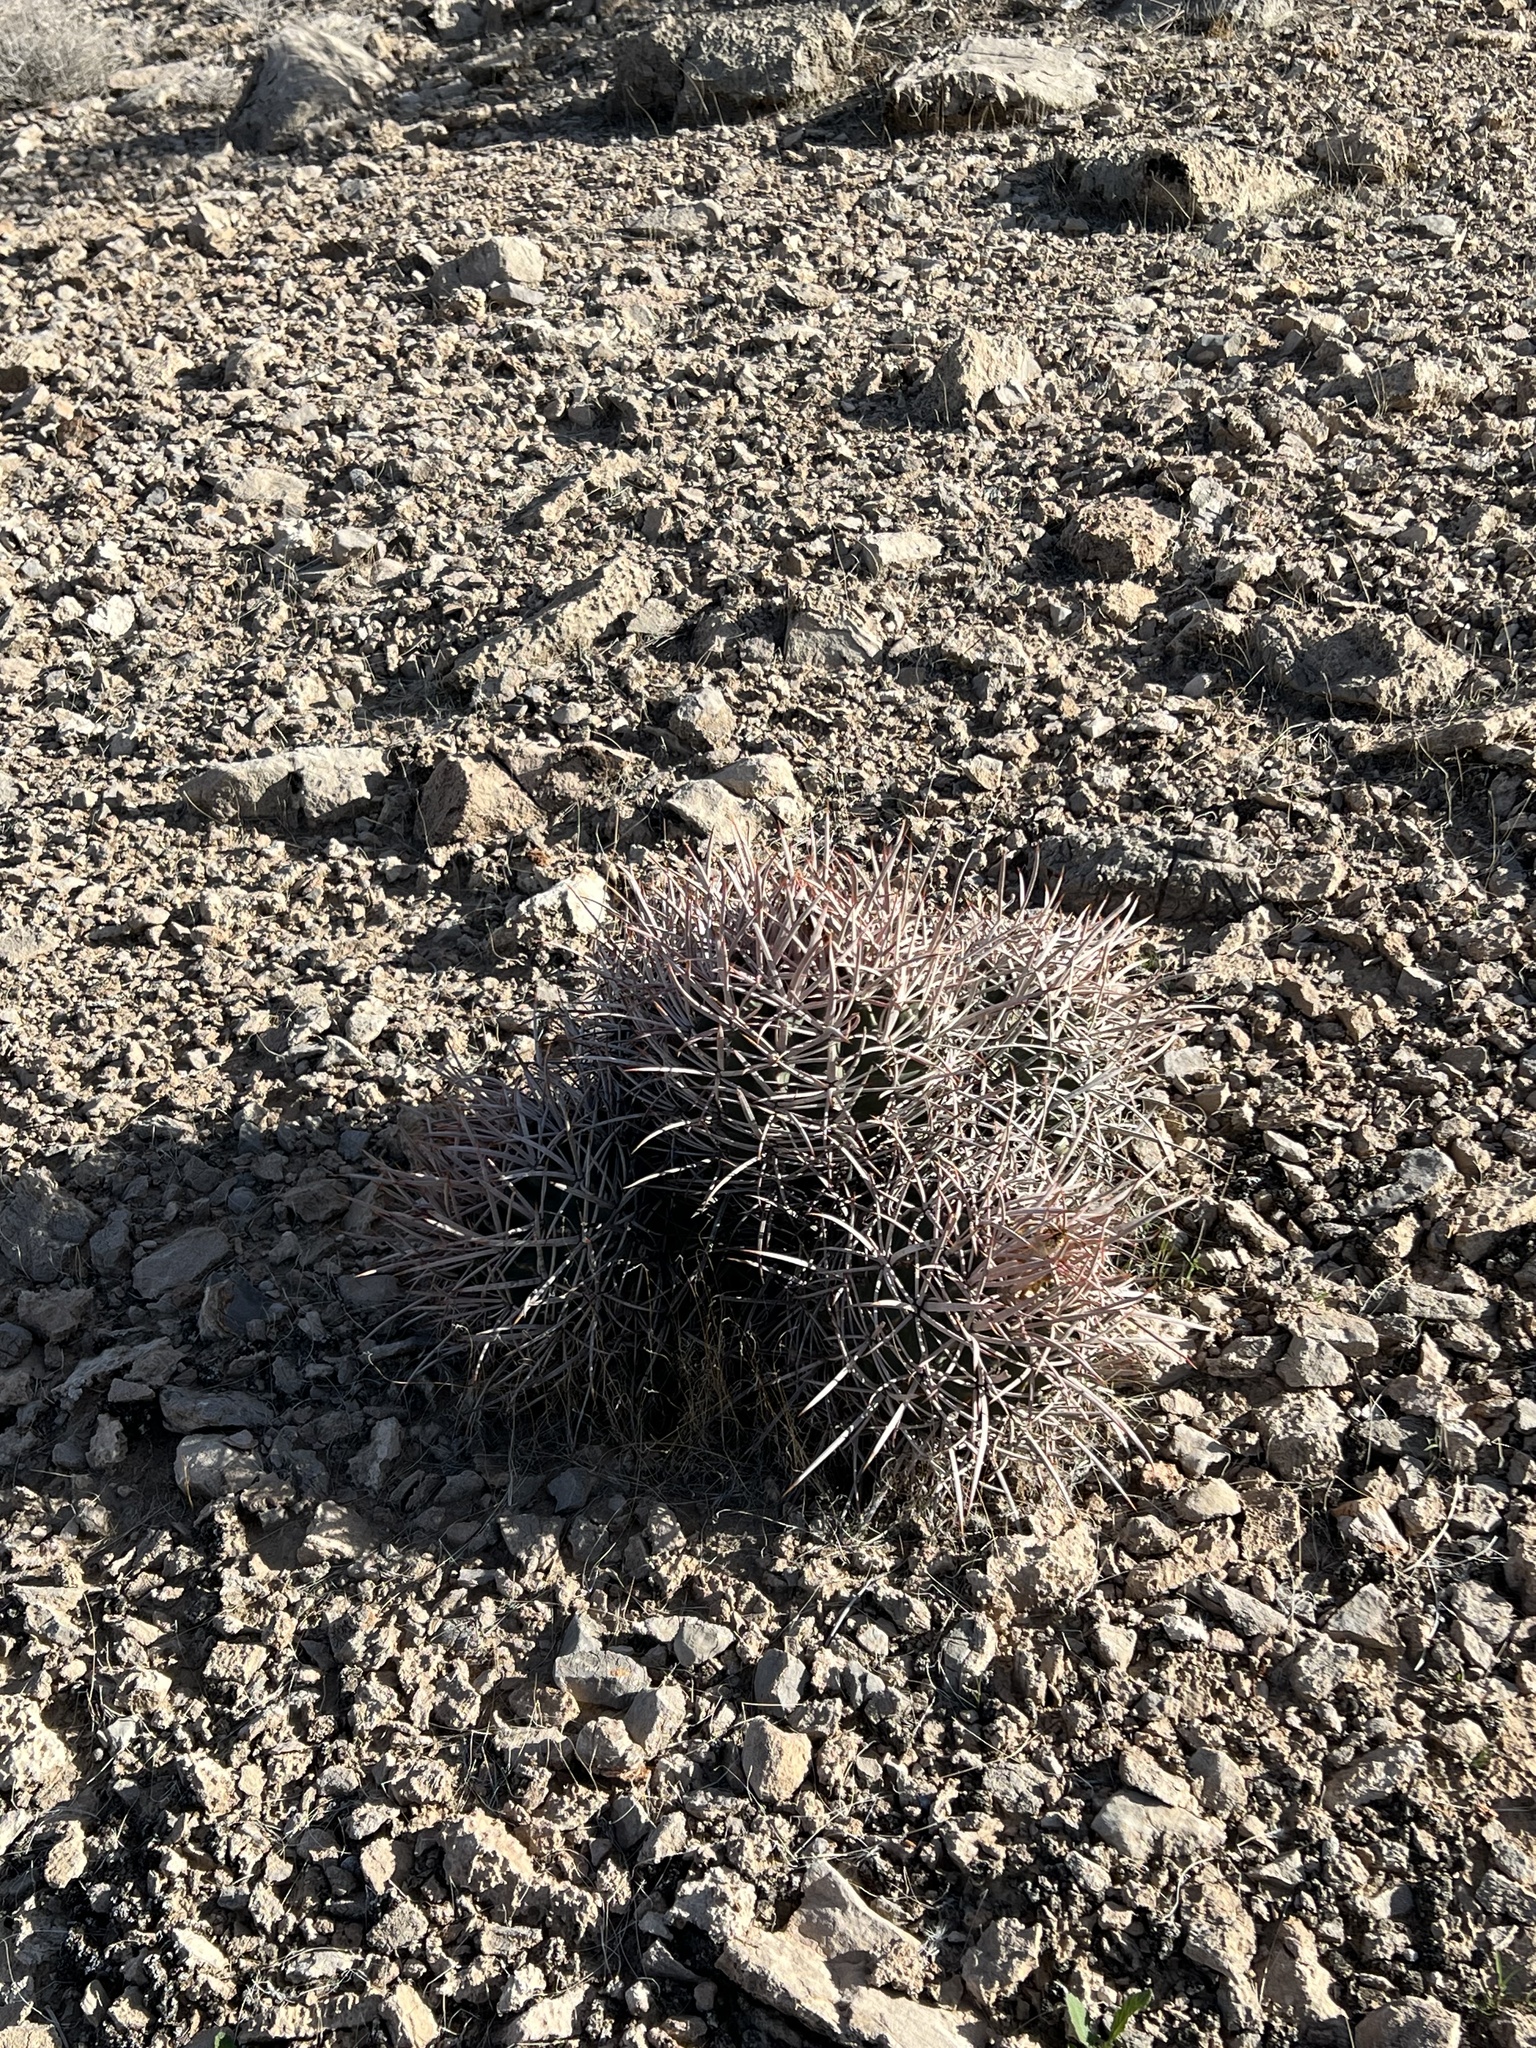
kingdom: Plantae
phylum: Tracheophyta
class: Magnoliopsida
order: Caryophyllales
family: Cactaceae
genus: Echinocactus
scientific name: Echinocactus polycephalus
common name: Cottontop cactus
